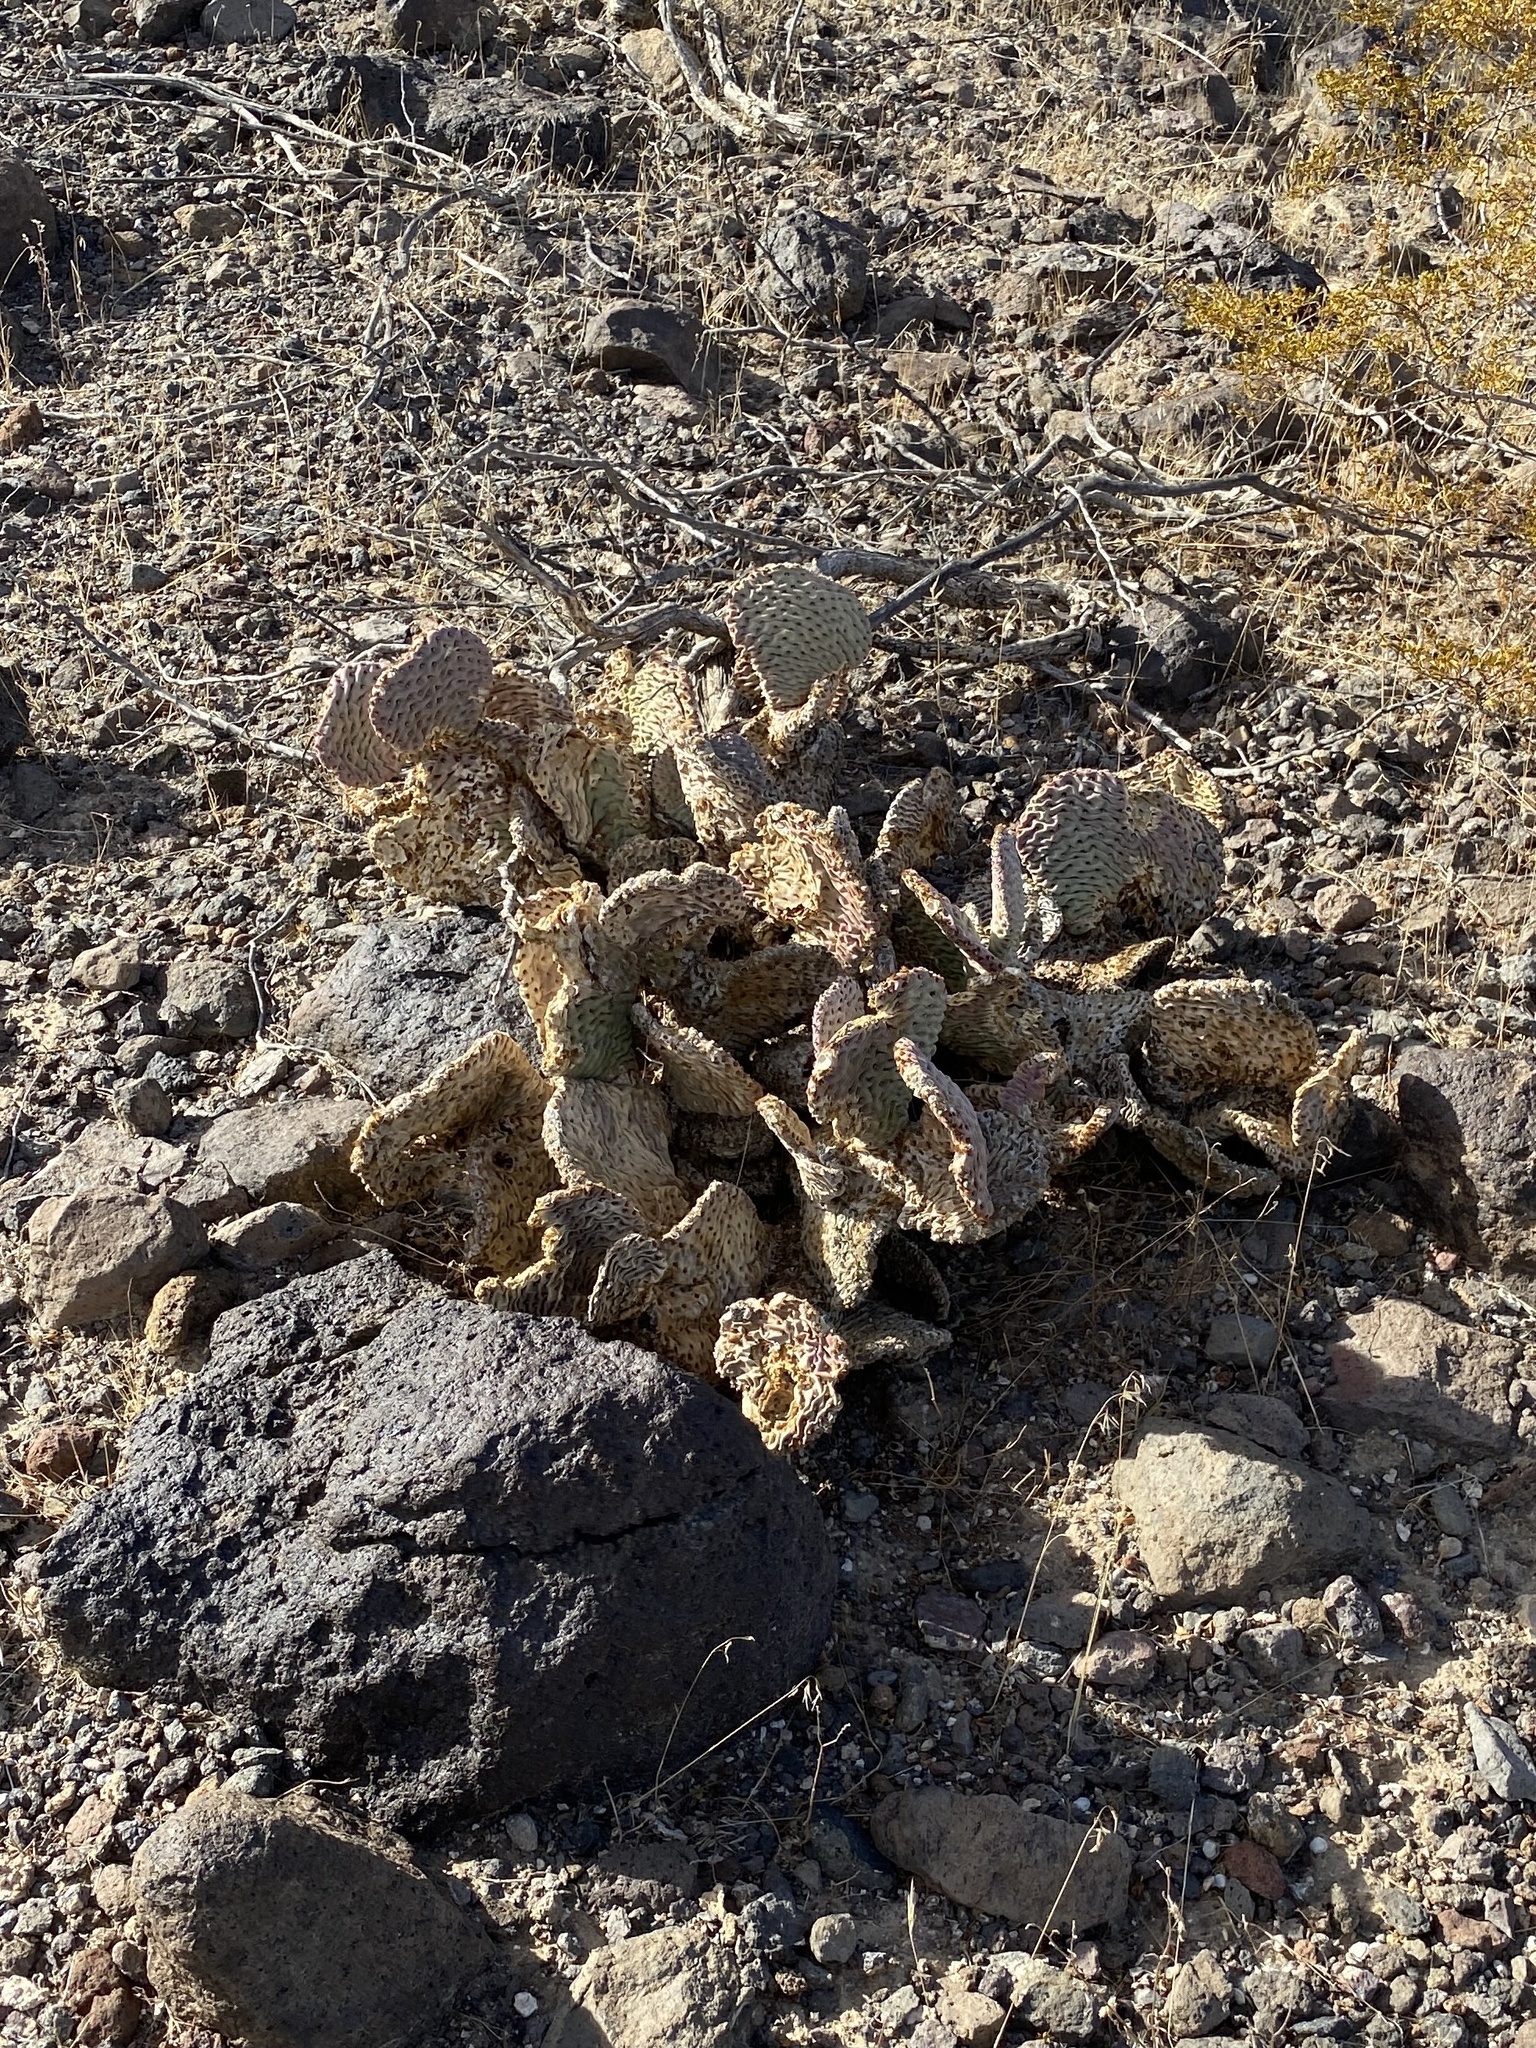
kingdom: Plantae
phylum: Tracheophyta
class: Magnoliopsida
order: Caryophyllales
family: Cactaceae
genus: Opuntia
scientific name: Opuntia basilaris
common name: Beavertail prickly-pear
